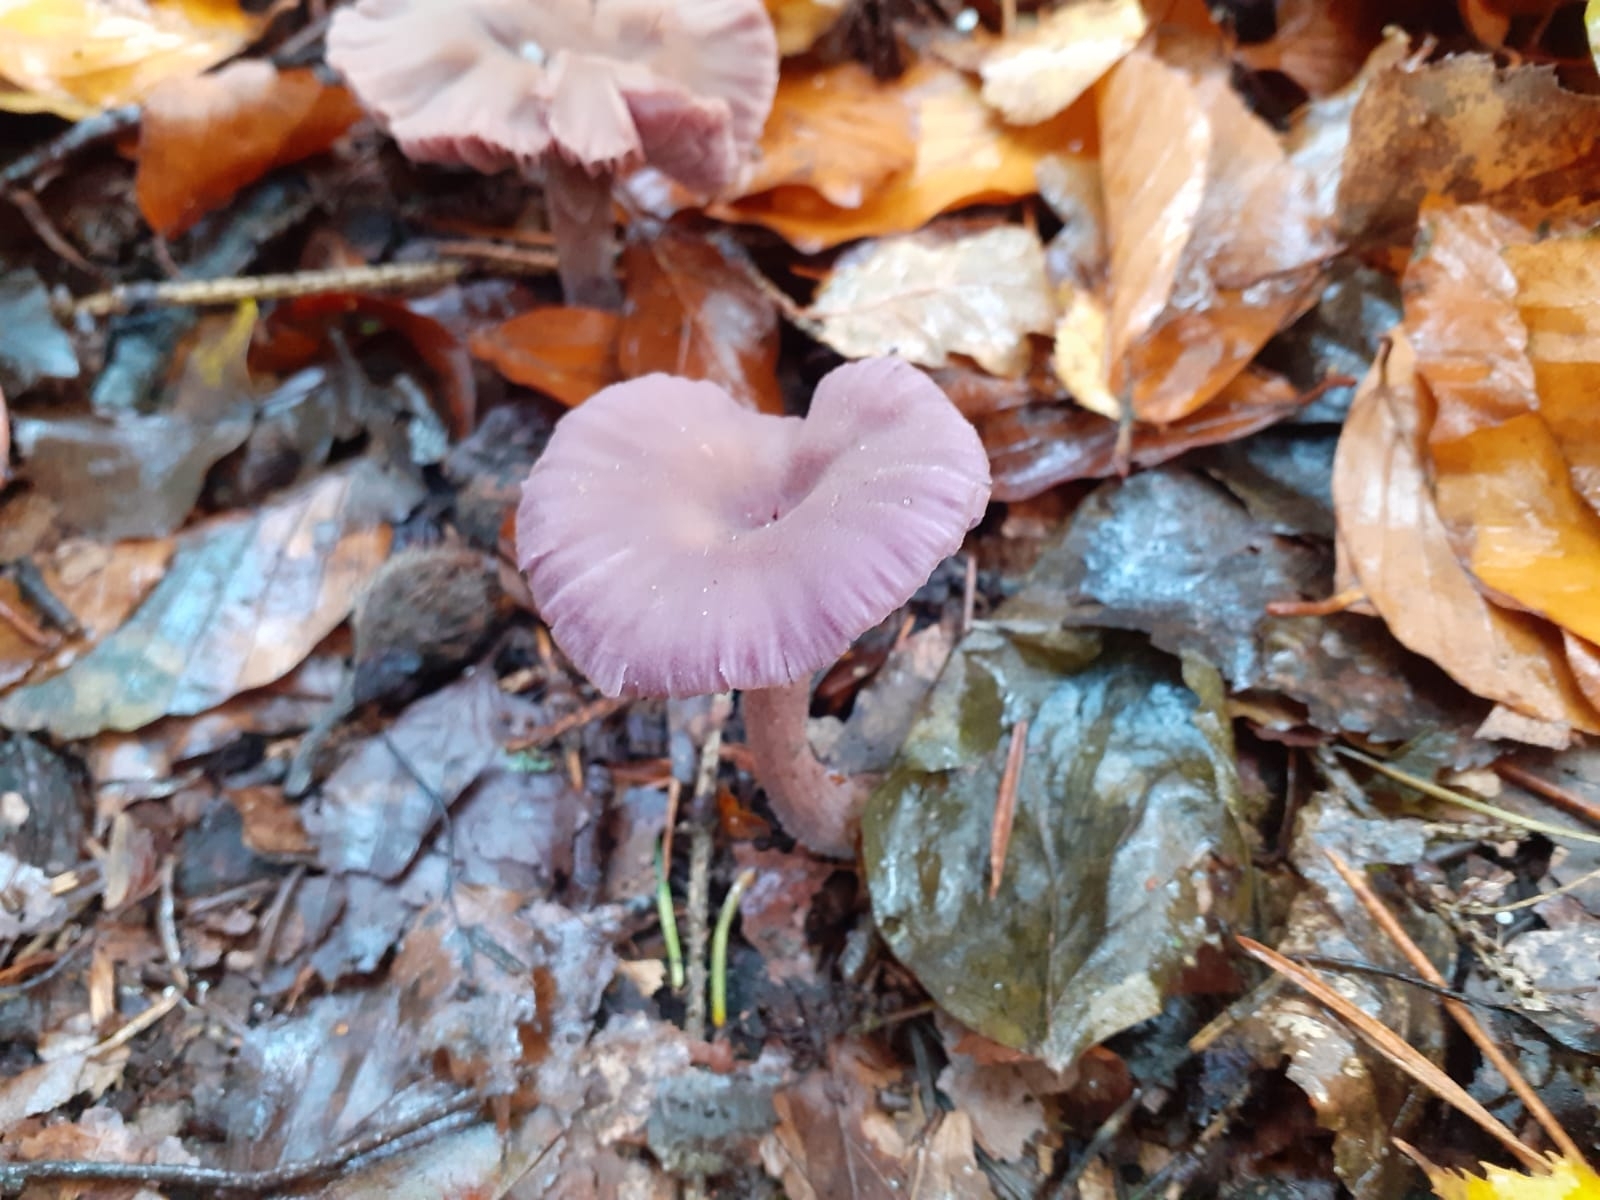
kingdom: Fungi
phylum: Basidiomycota
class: Agaricomycetes
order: Agaricales
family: Hydnangiaceae
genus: Laccaria
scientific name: Laccaria amethystina
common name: Amethyst deceiver
